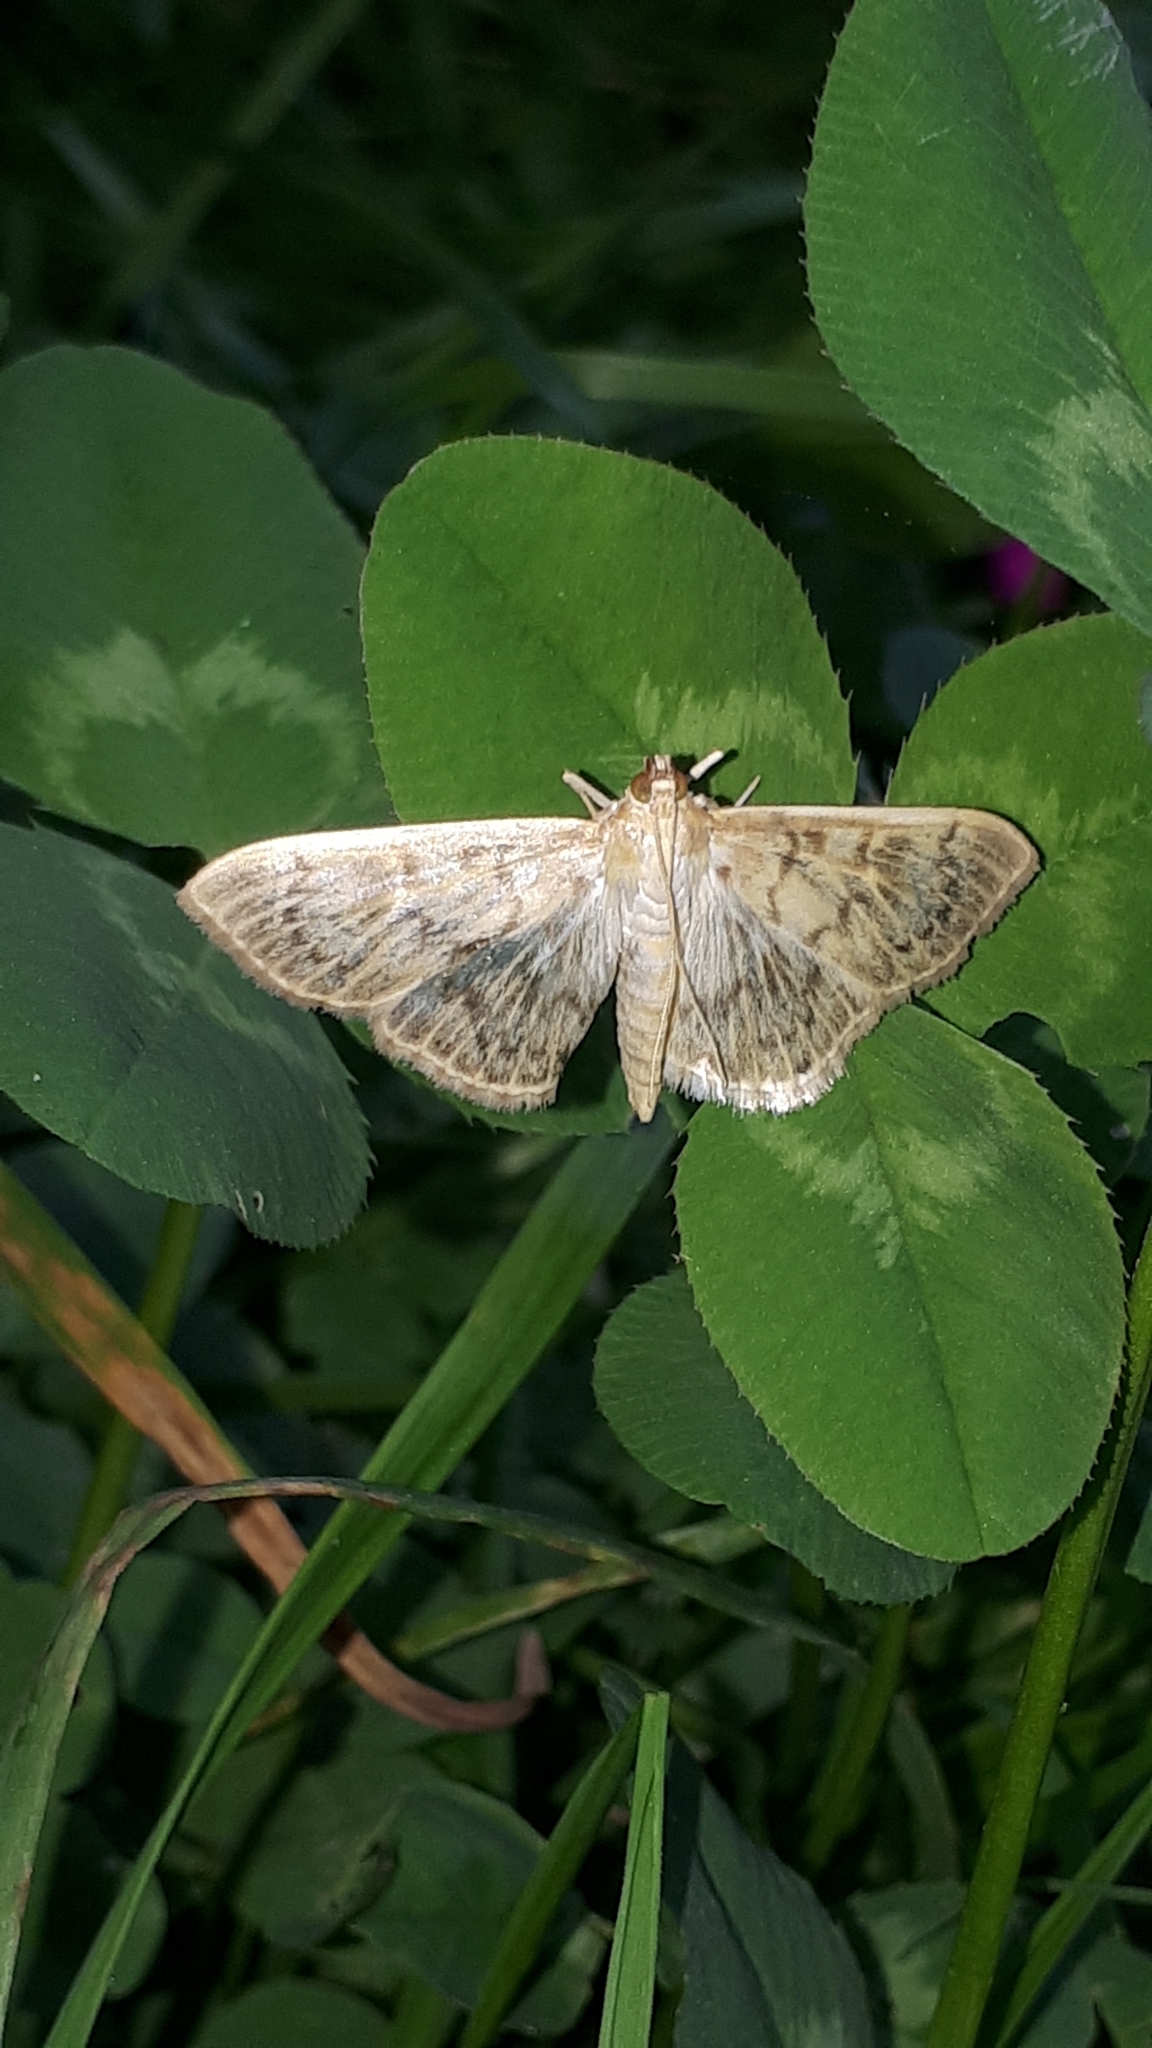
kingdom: Animalia
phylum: Arthropoda
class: Insecta
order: Lepidoptera
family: Crambidae
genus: Patania
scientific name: Patania ruralis
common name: Mother of pearl
